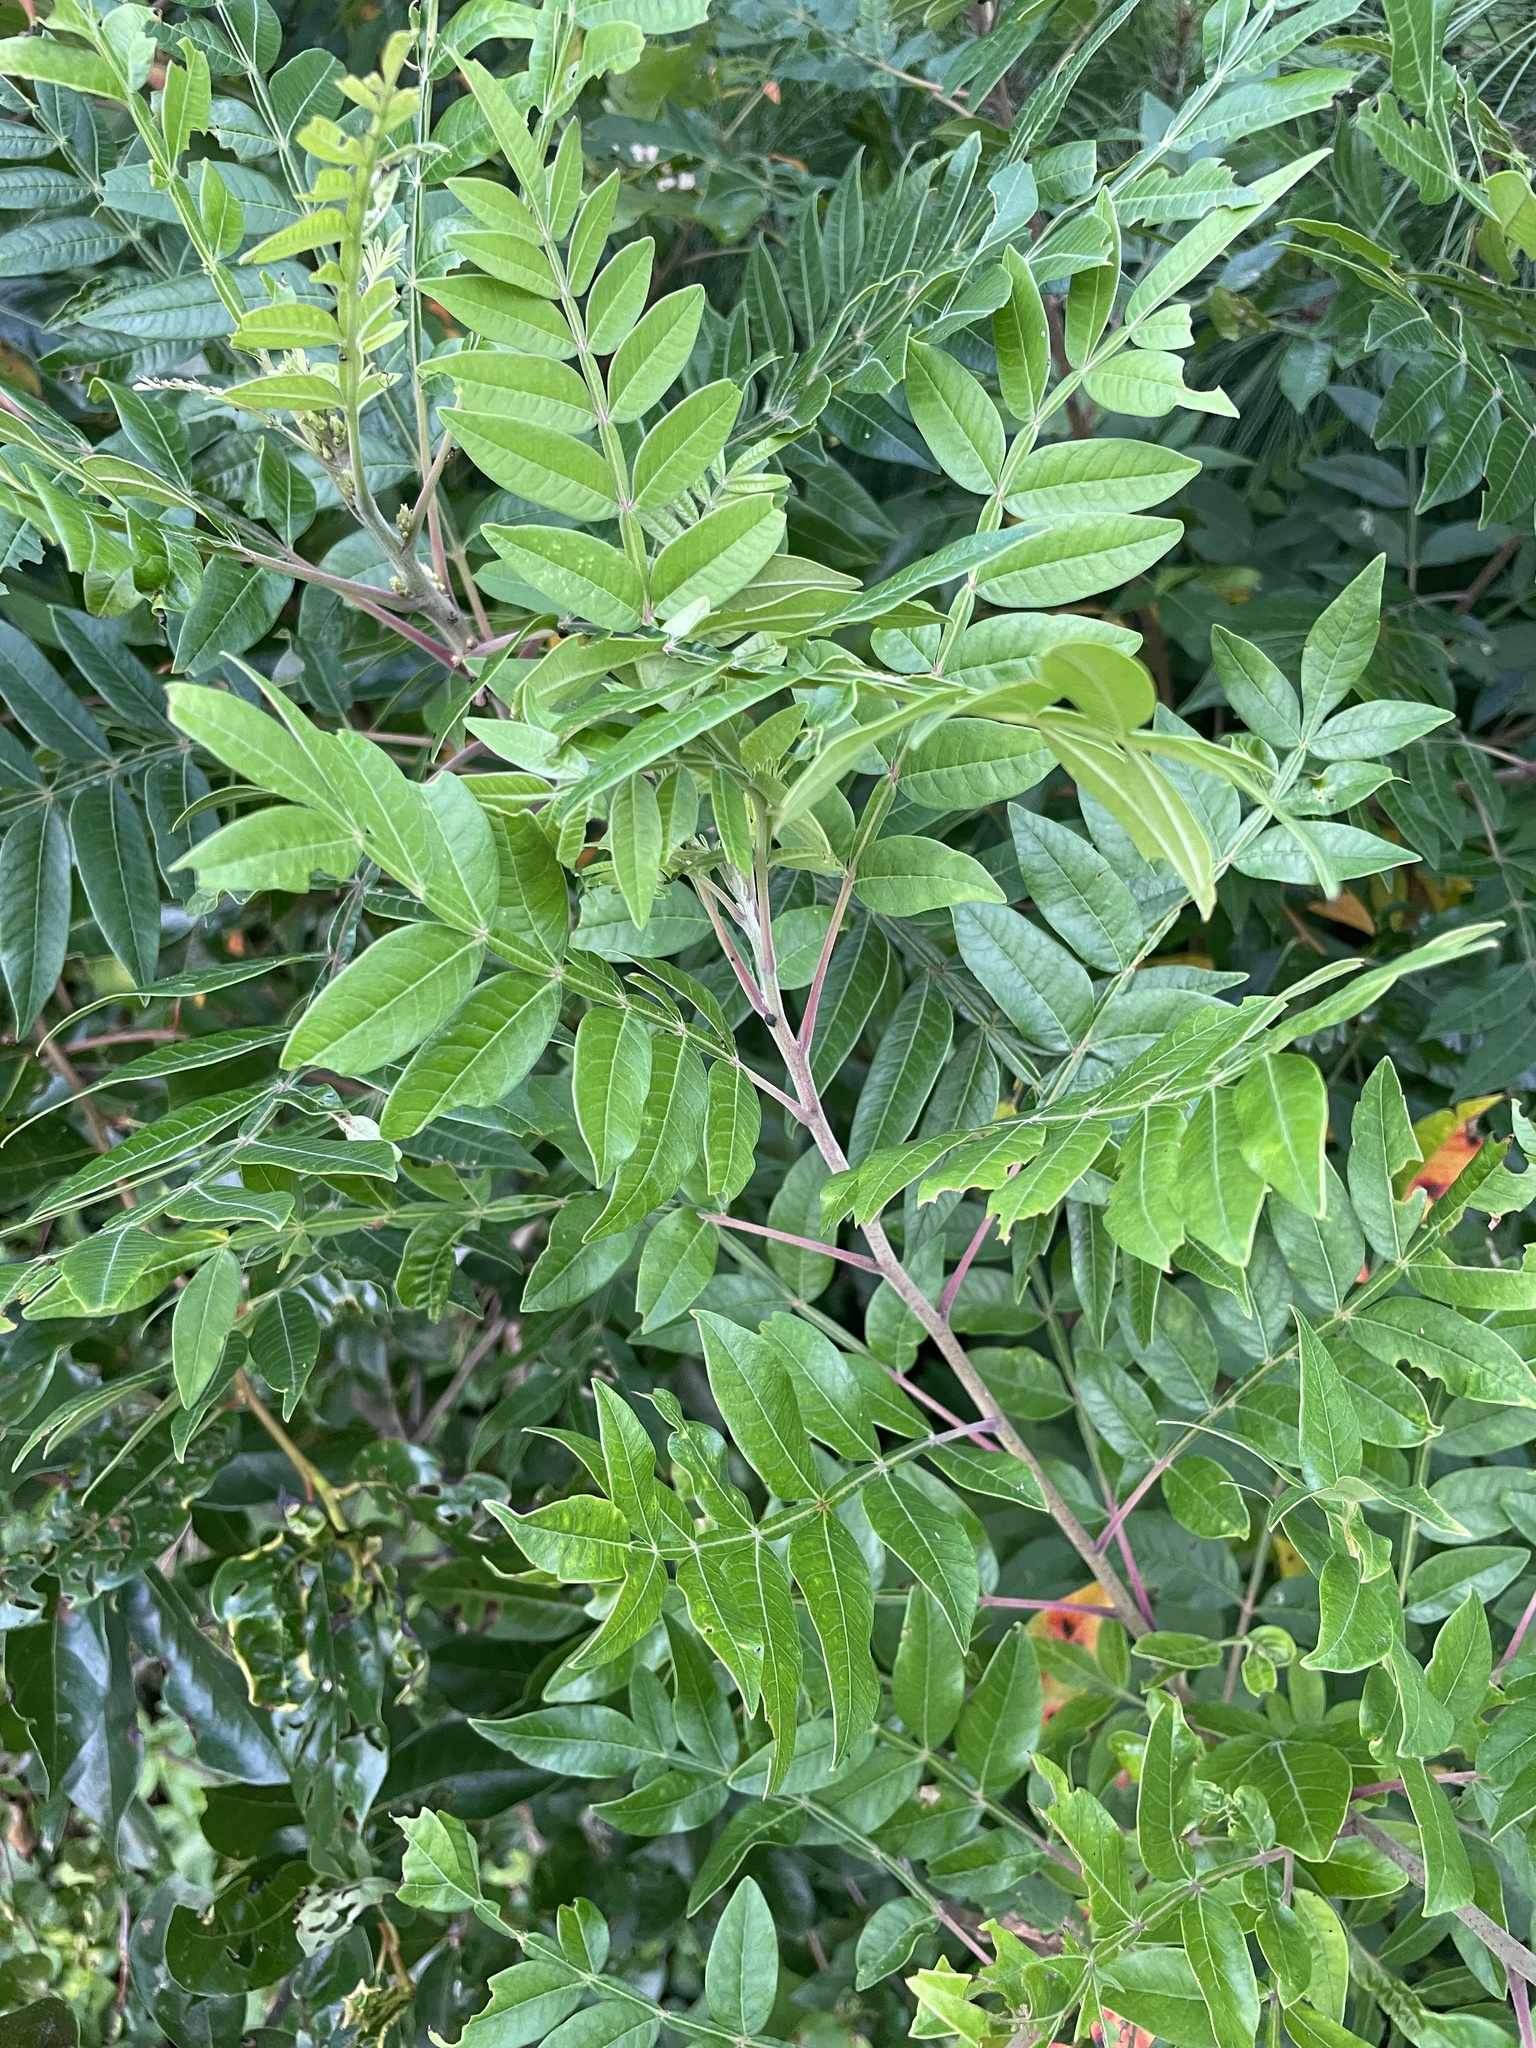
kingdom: Plantae
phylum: Tracheophyta
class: Magnoliopsida
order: Sapindales
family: Anacardiaceae
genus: Rhus
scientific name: Rhus copallina
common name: Shining sumac
